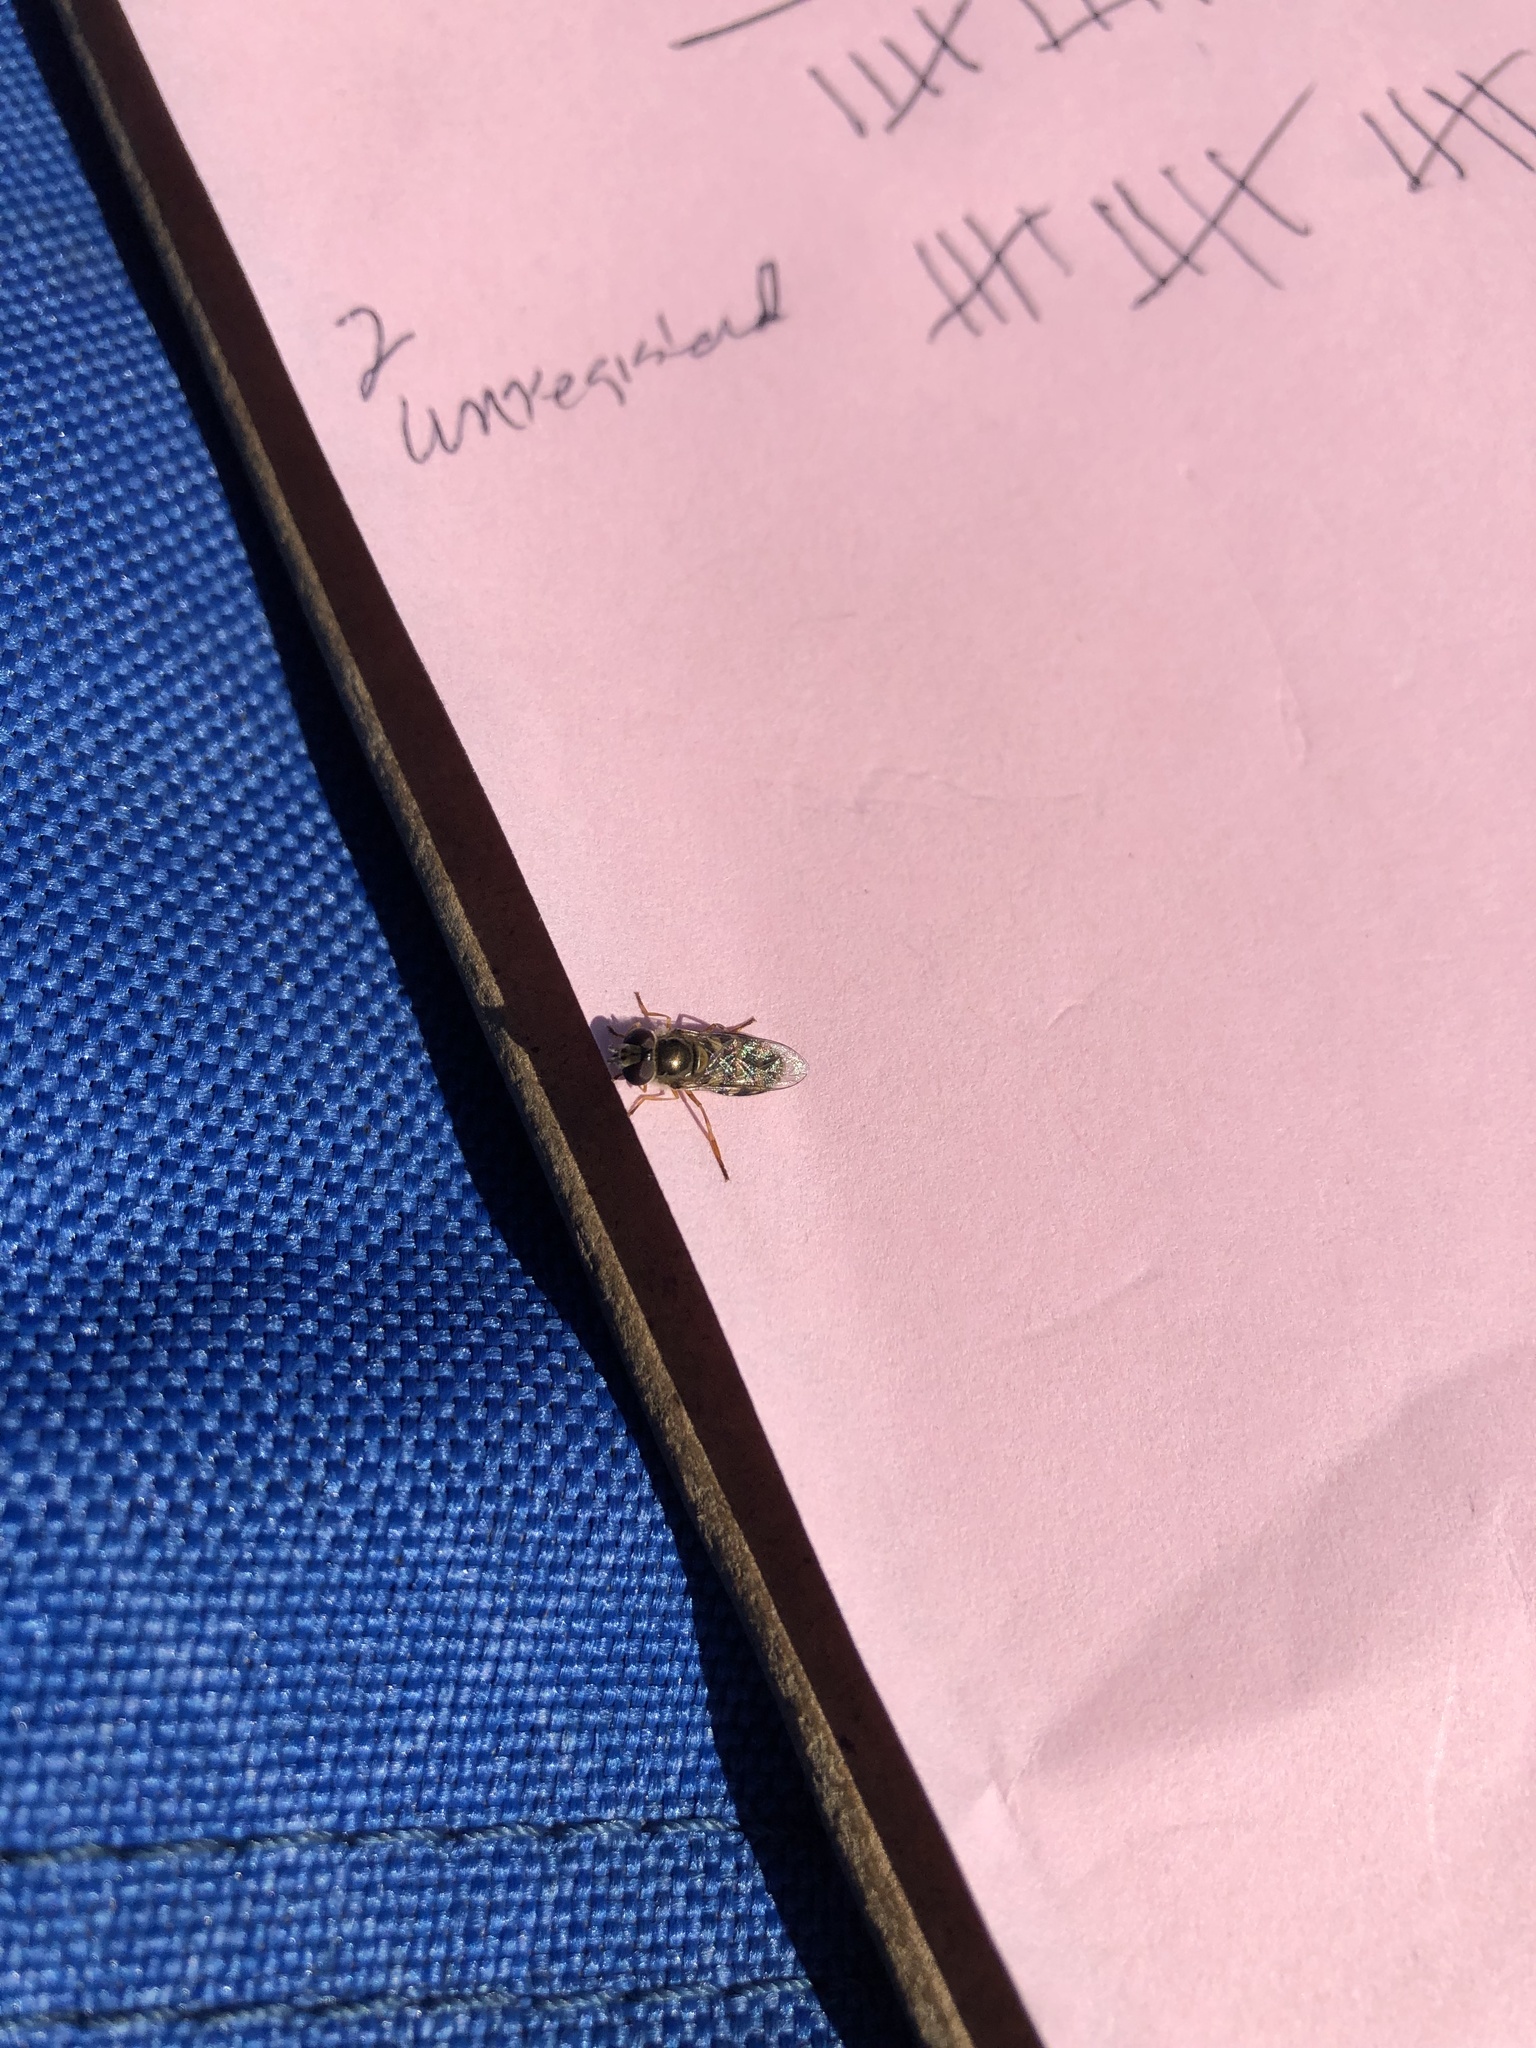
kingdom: Animalia
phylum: Arthropoda
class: Insecta
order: Diptera
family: Syrphidae
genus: Eupeodes
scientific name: Eupeodes fumipennis
